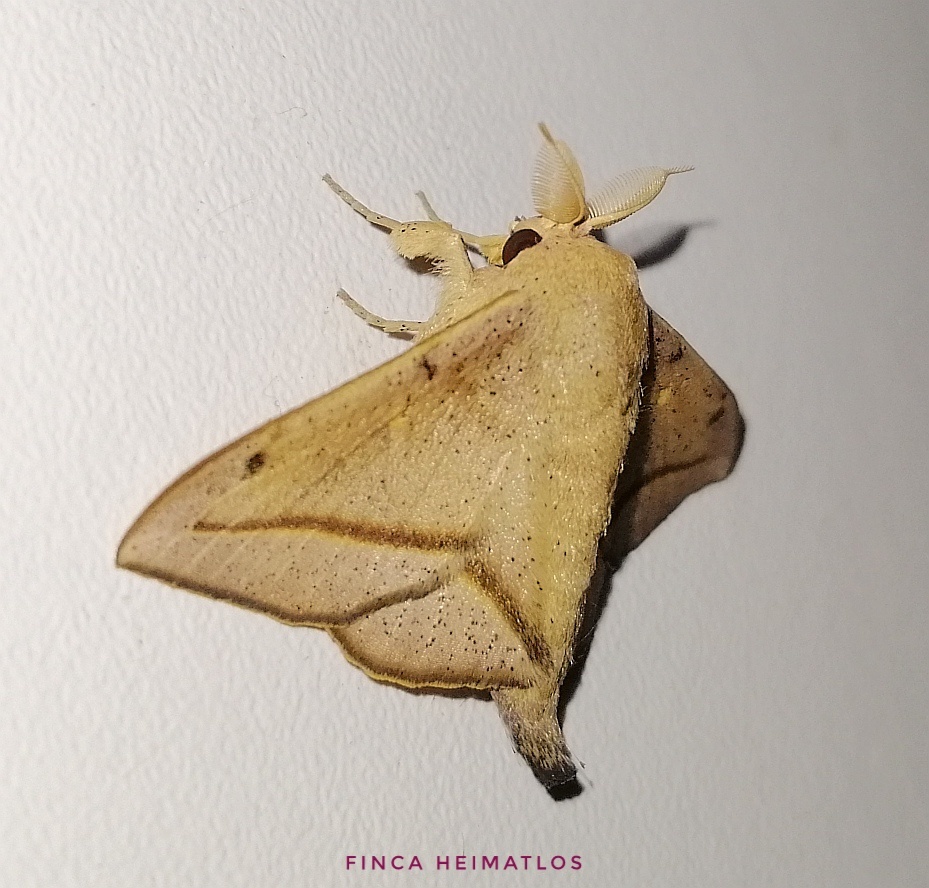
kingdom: Animalia
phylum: Arthropoda
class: Insecta
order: Lepidoptera
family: Mimallonidae
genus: Druentica
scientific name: Druentica coralie
